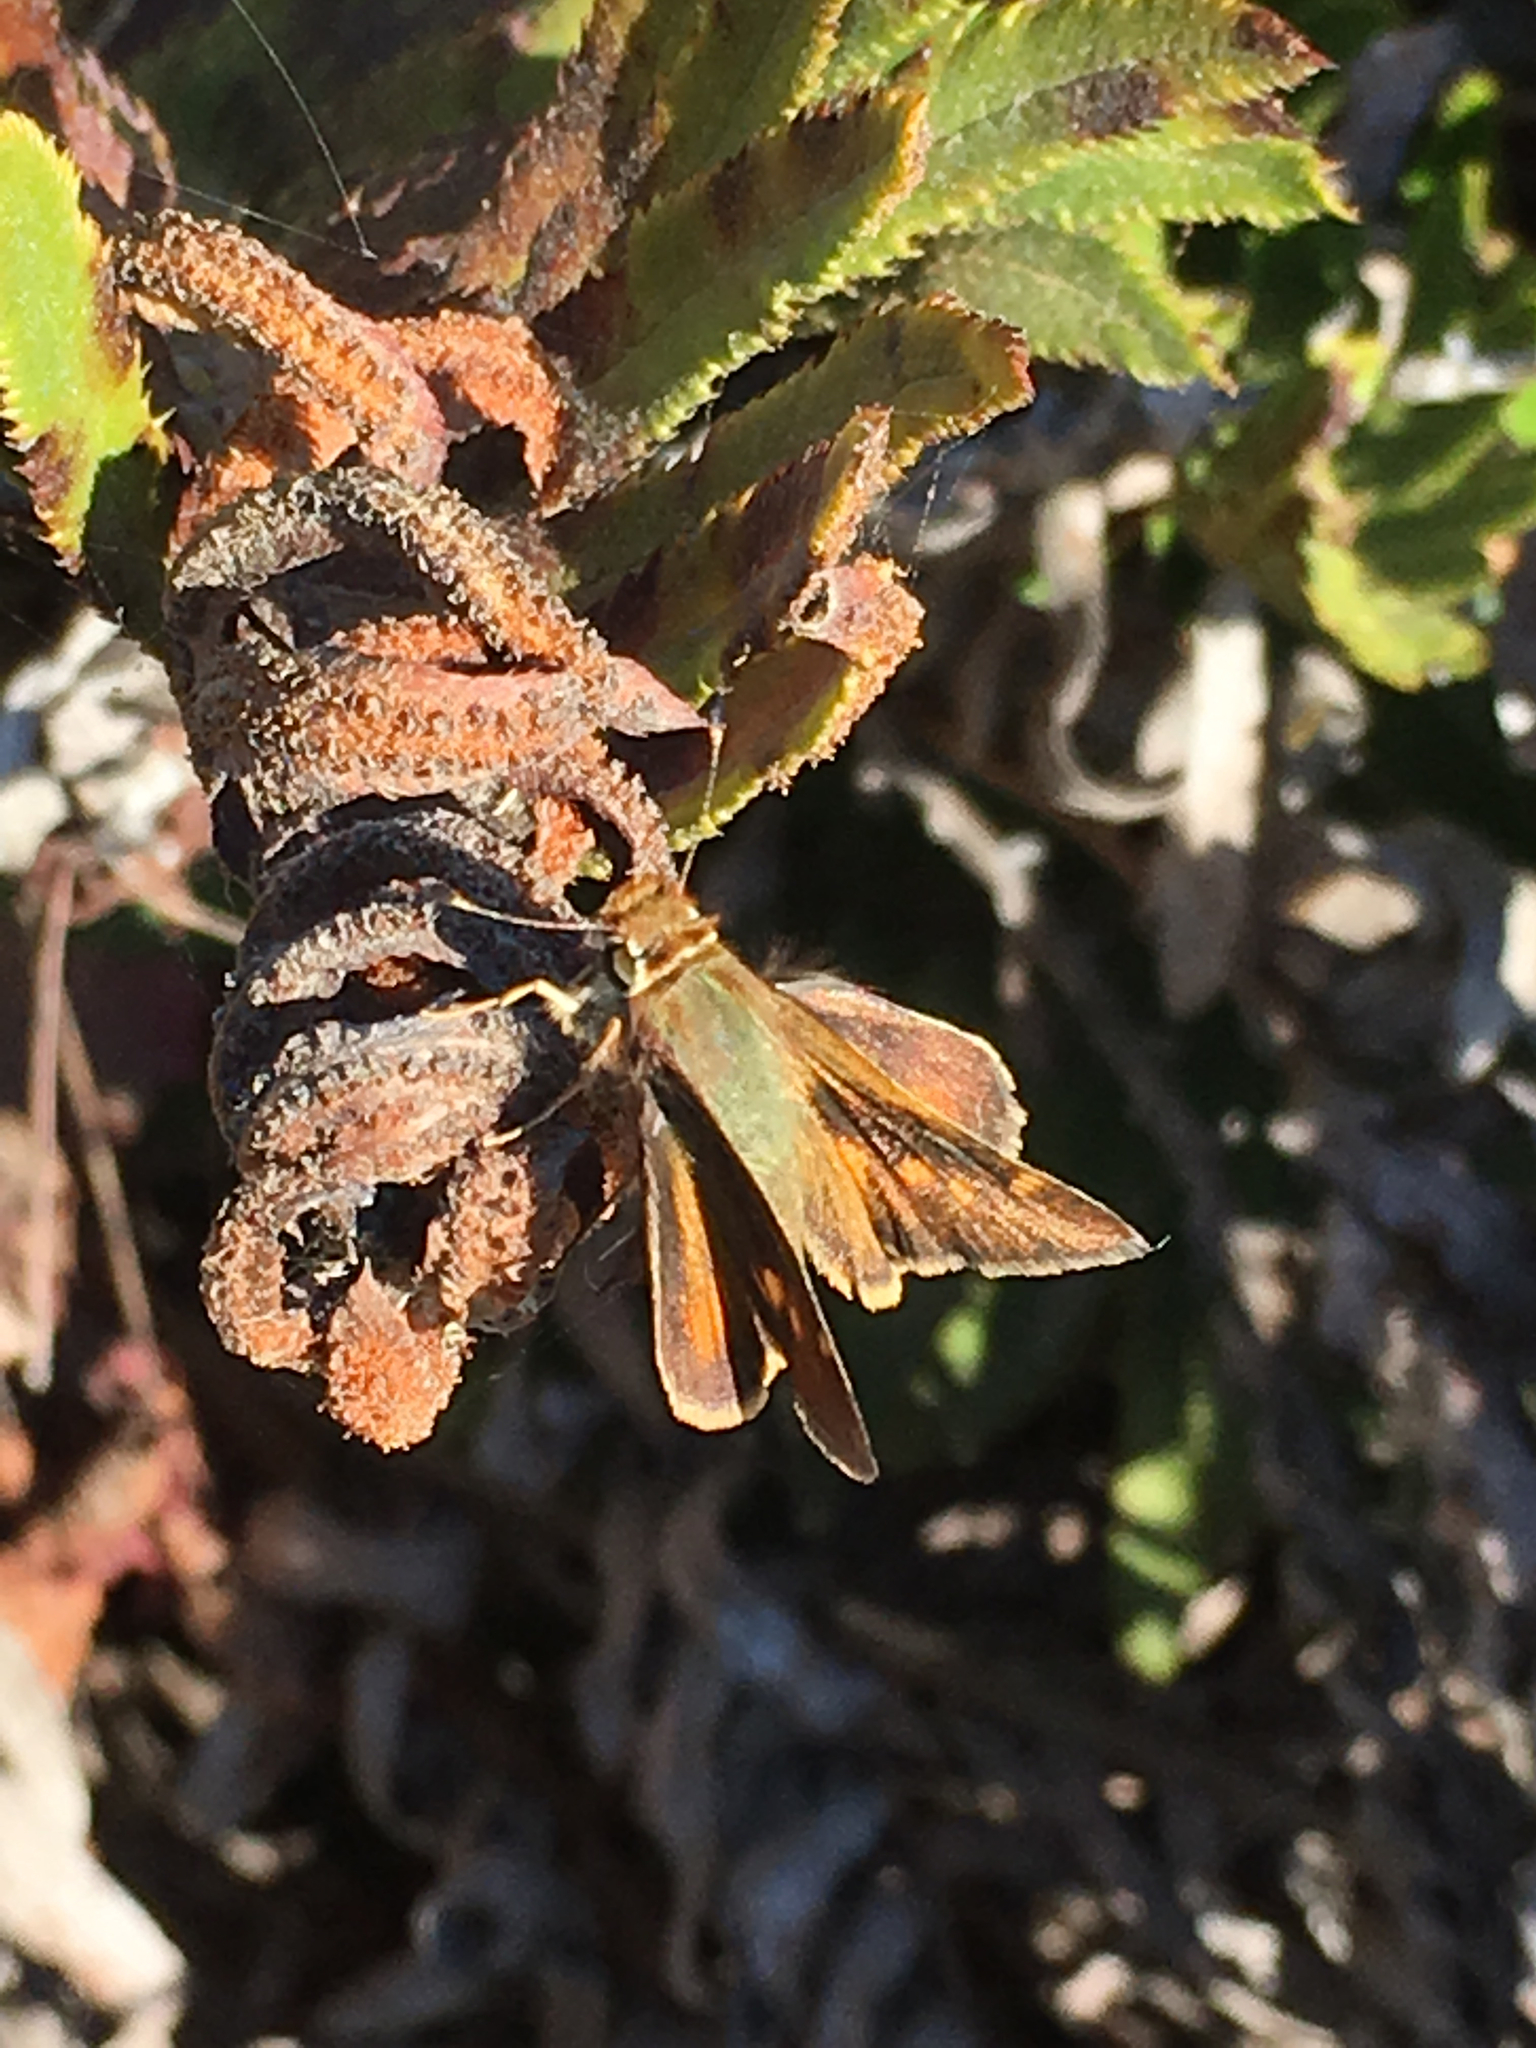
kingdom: Animalia
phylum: Arthropoda
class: Insecta
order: Lepidoptera
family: Hesperiidae
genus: Lon
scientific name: Lon melane
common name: Umber skipper
